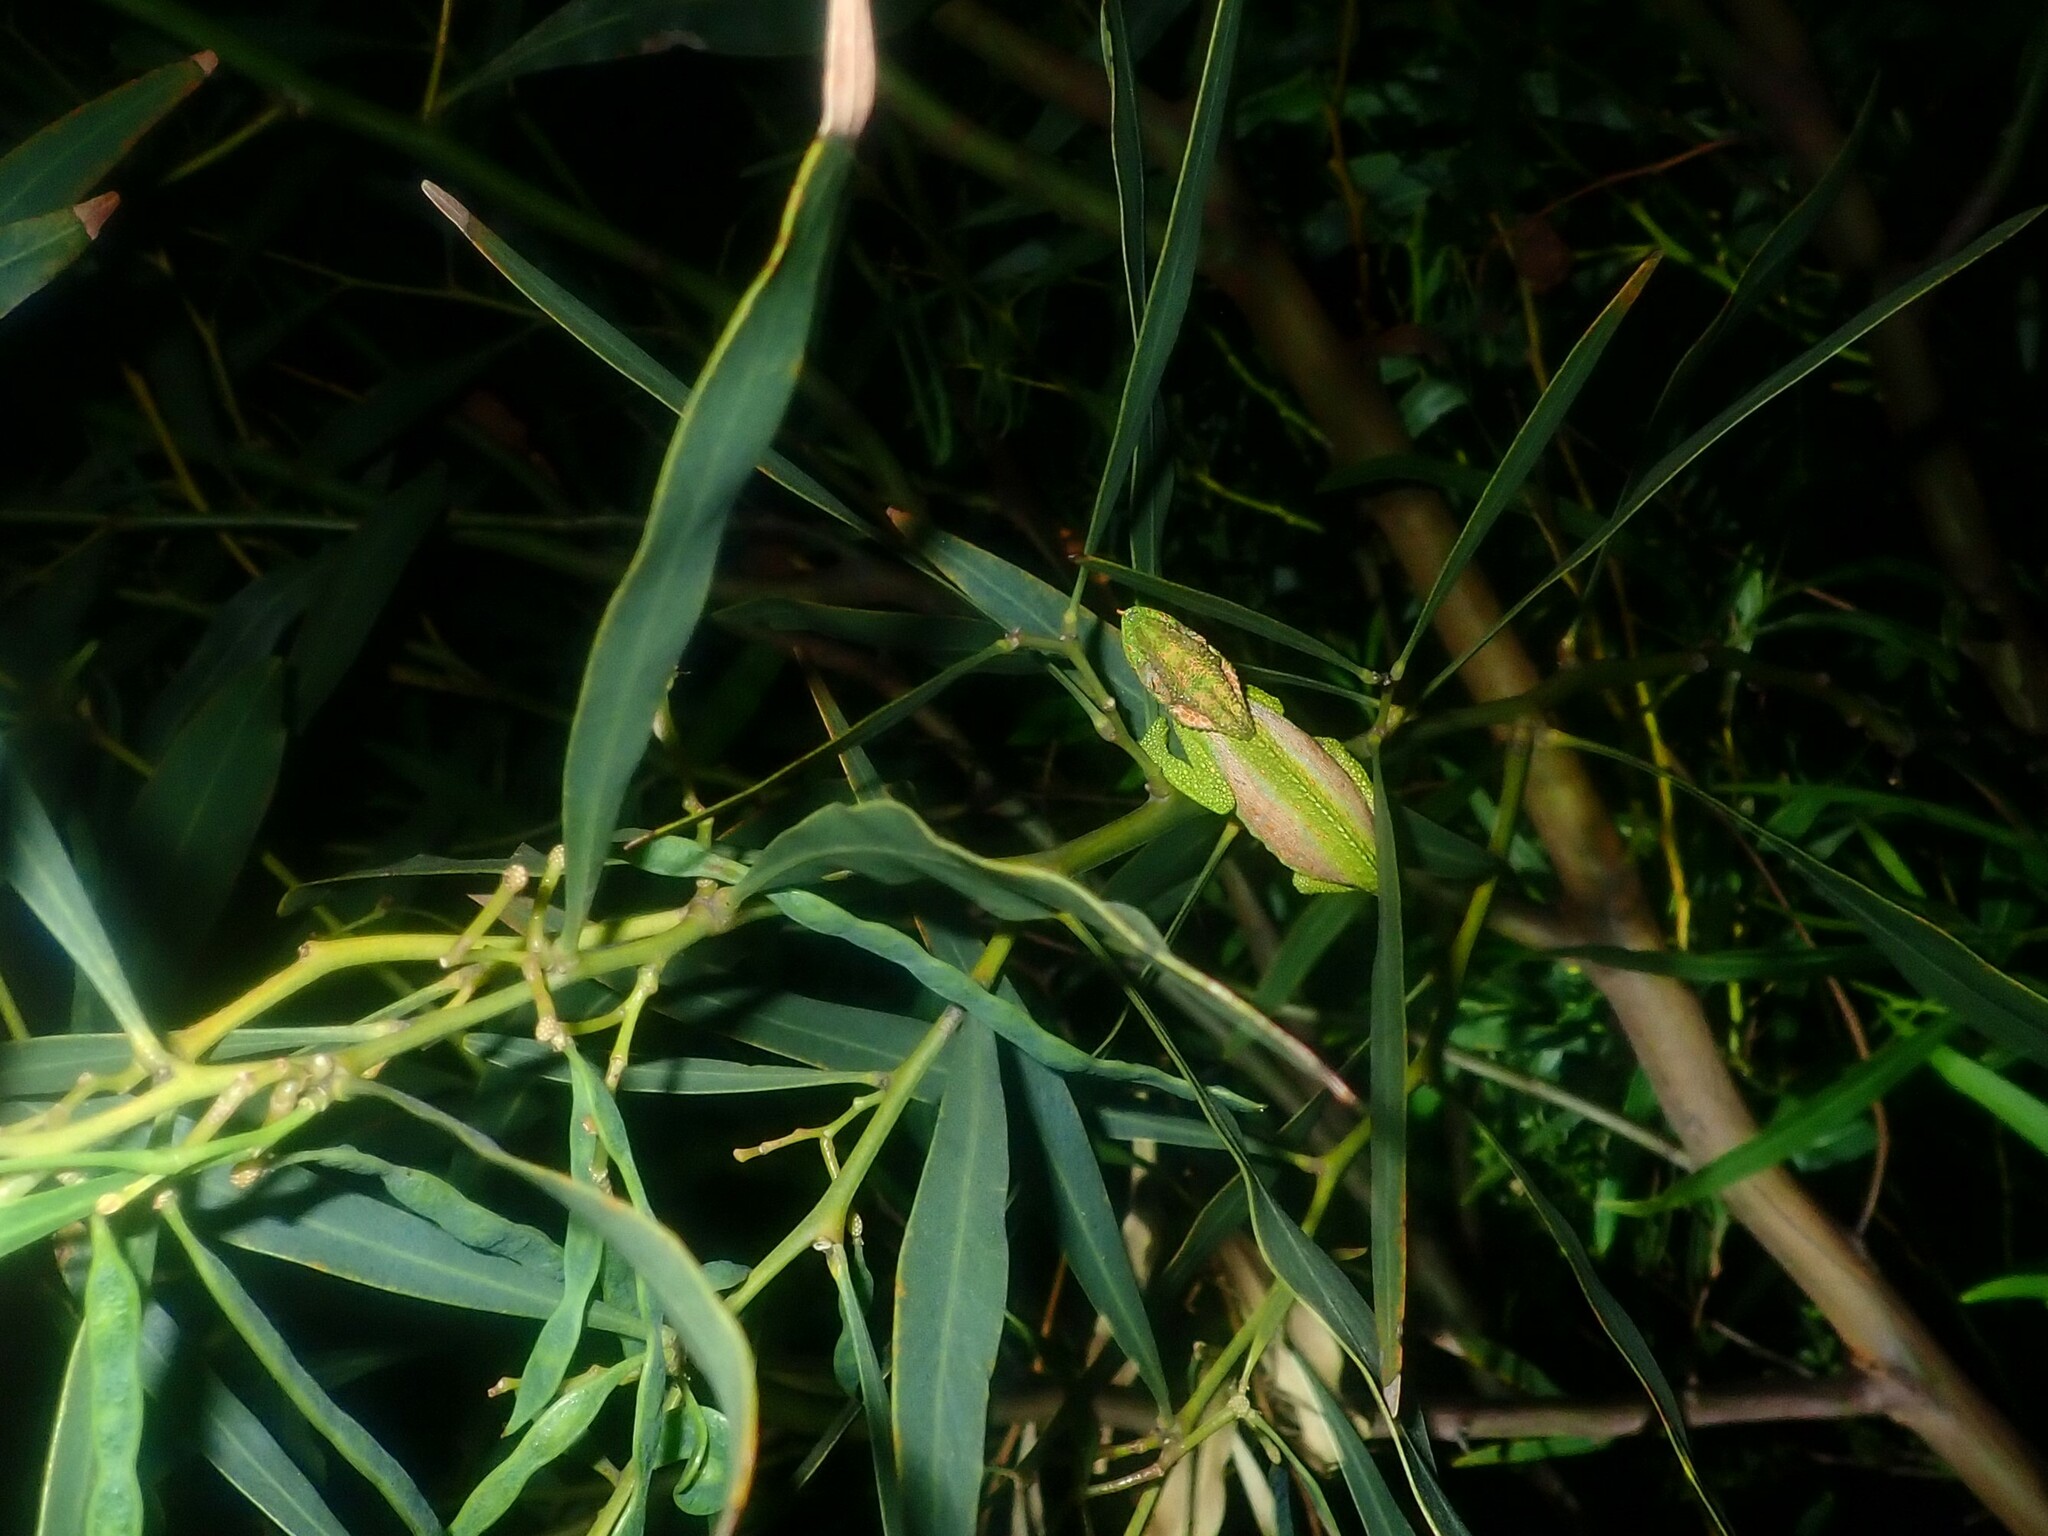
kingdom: Animalia
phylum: Chordata
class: Squamata
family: Chamaeleonidae
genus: Bradypodion
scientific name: Bradypodion pumilum
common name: Cape dwarf chameleon
